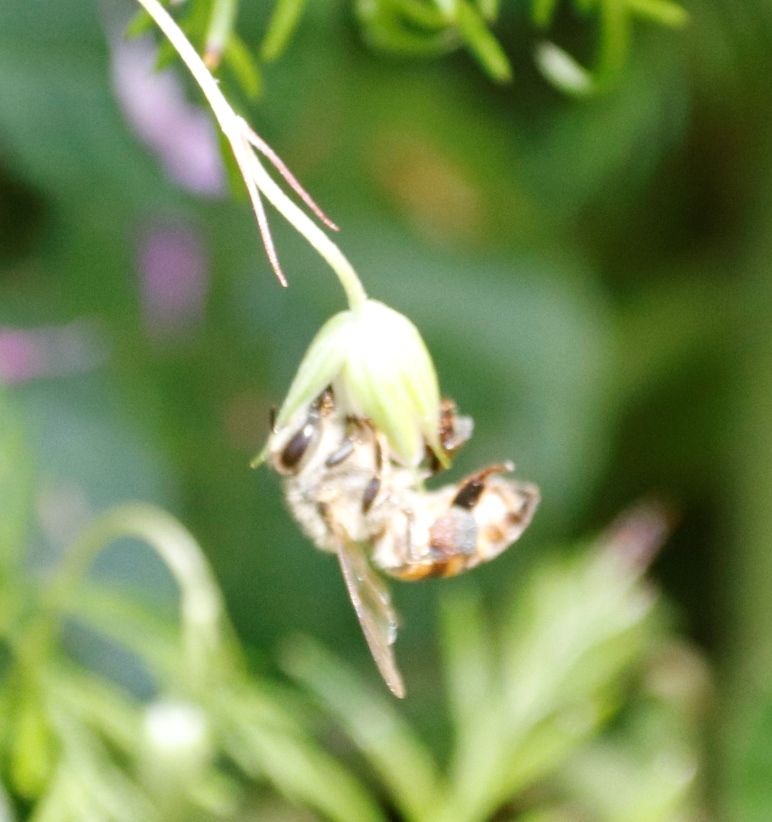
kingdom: Animalia
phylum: Arthropoda
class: Insecta
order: Hymenoptera
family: Apidae
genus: Apis
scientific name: Apis mellifera
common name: Honey bee
